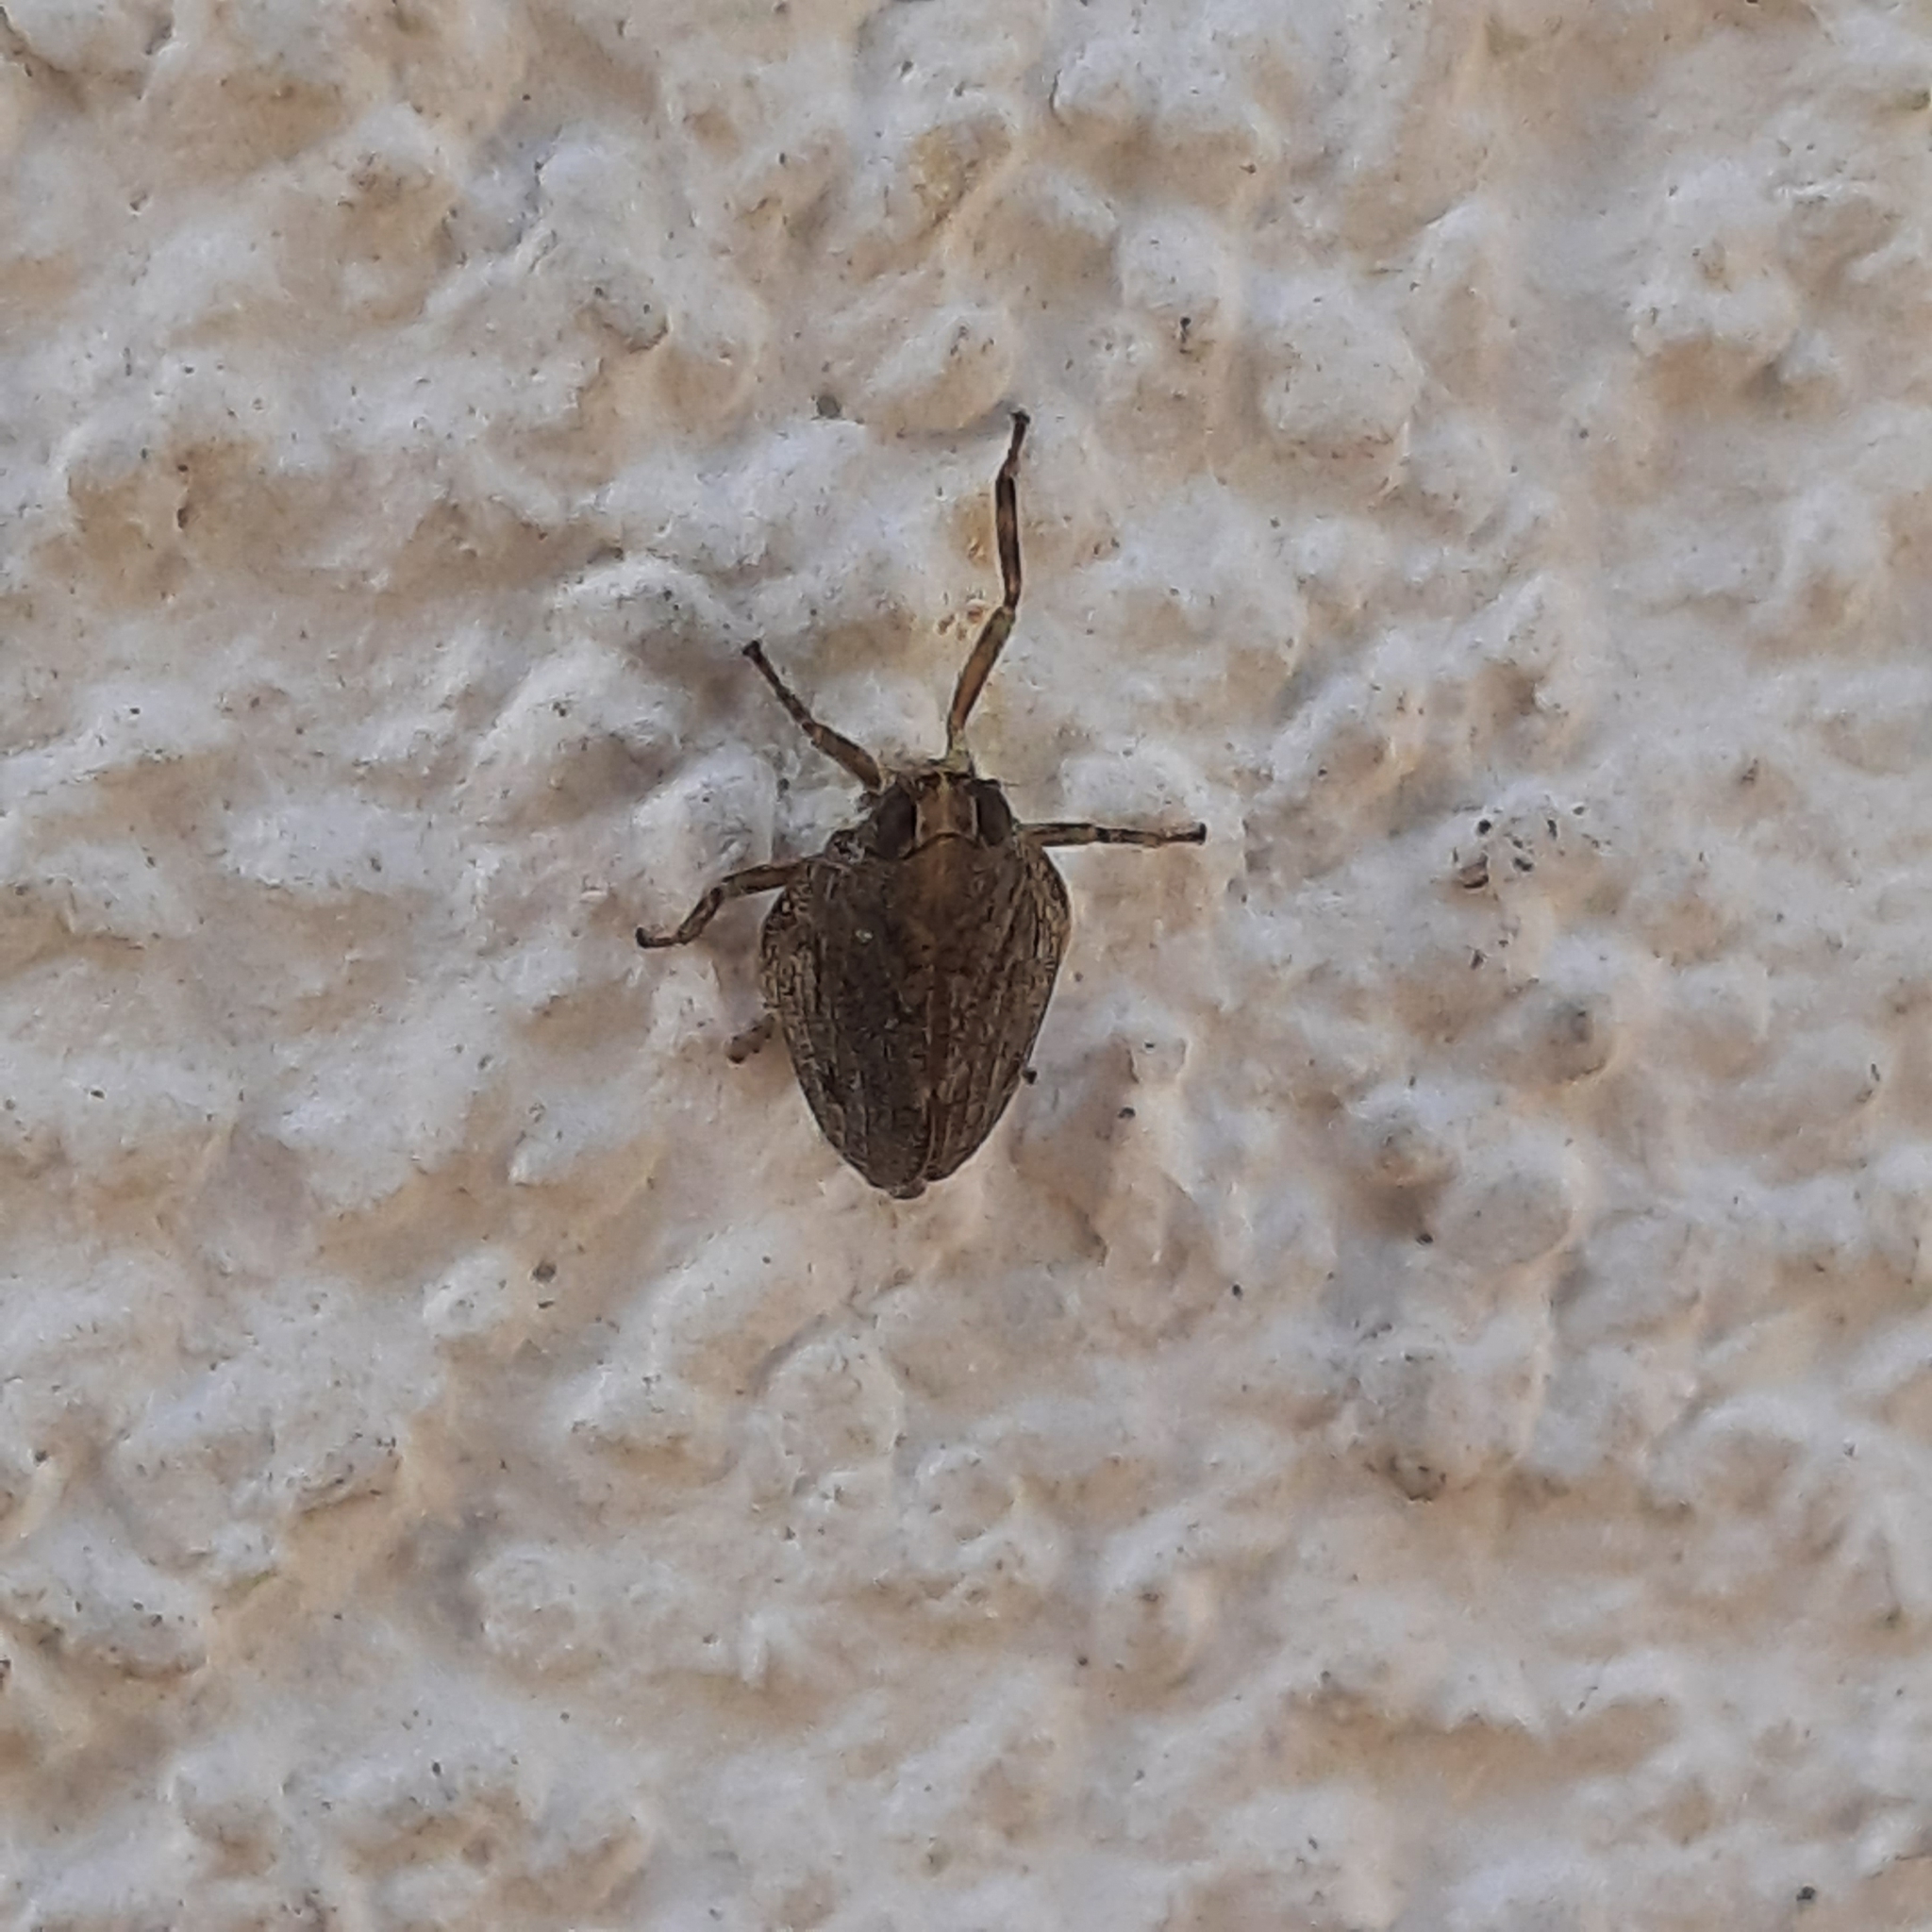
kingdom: Animalia
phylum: Arthropoda
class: Insecta
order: Hemiptera
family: Issidae
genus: Issus
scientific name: Issus coleoptratus
